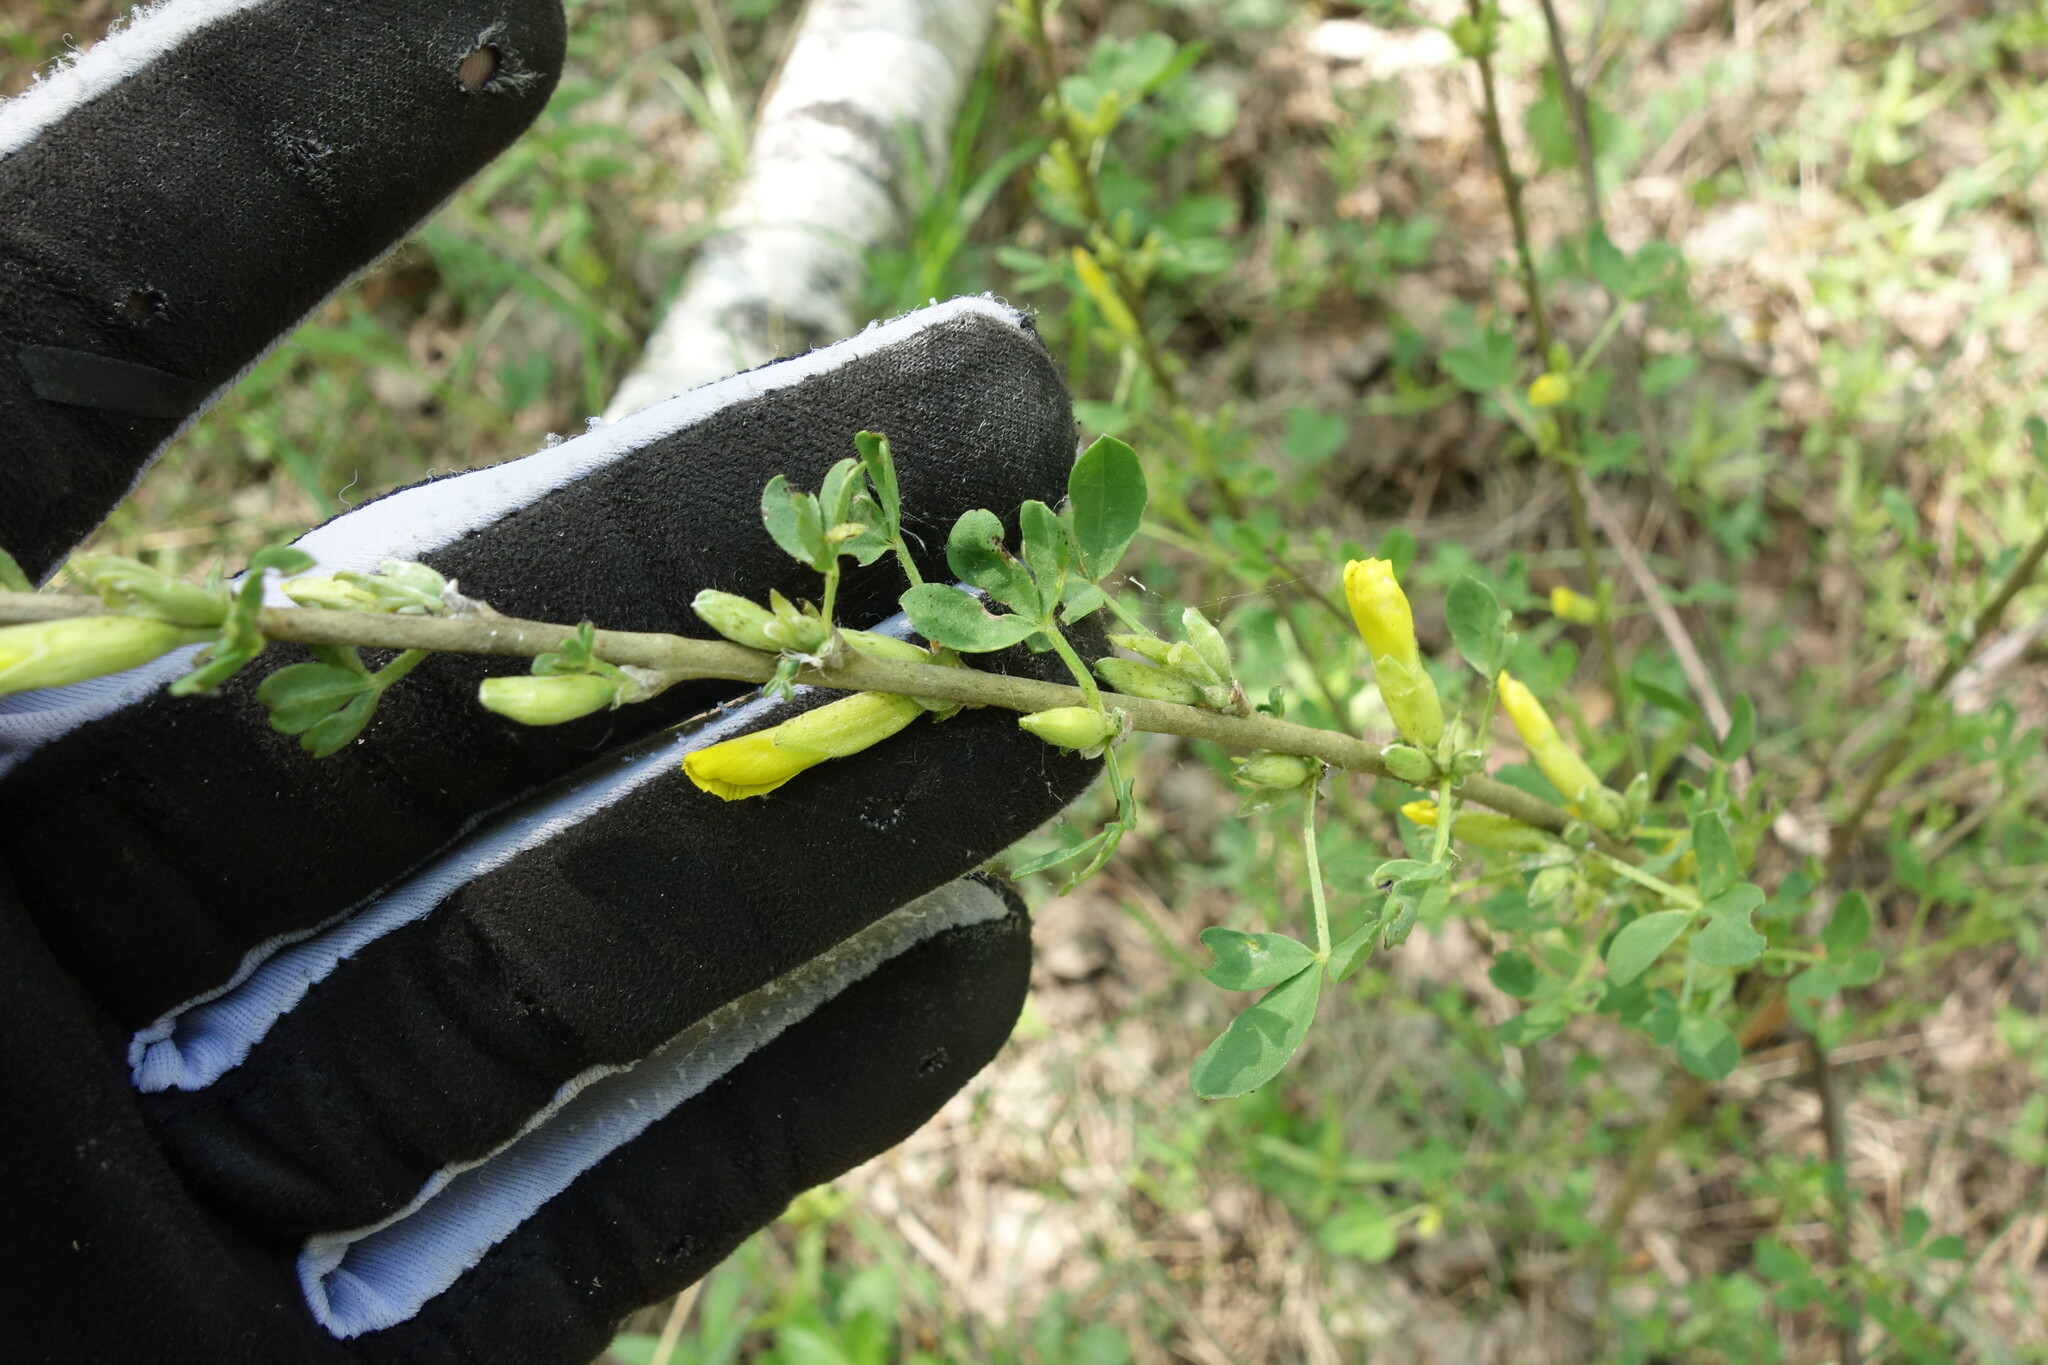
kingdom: Plantae
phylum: Tracheophyta
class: Magnoliopsida
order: Fabales
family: Fabaceae
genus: Chamaecytisus
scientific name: Chamaecytisus ruthenicus
